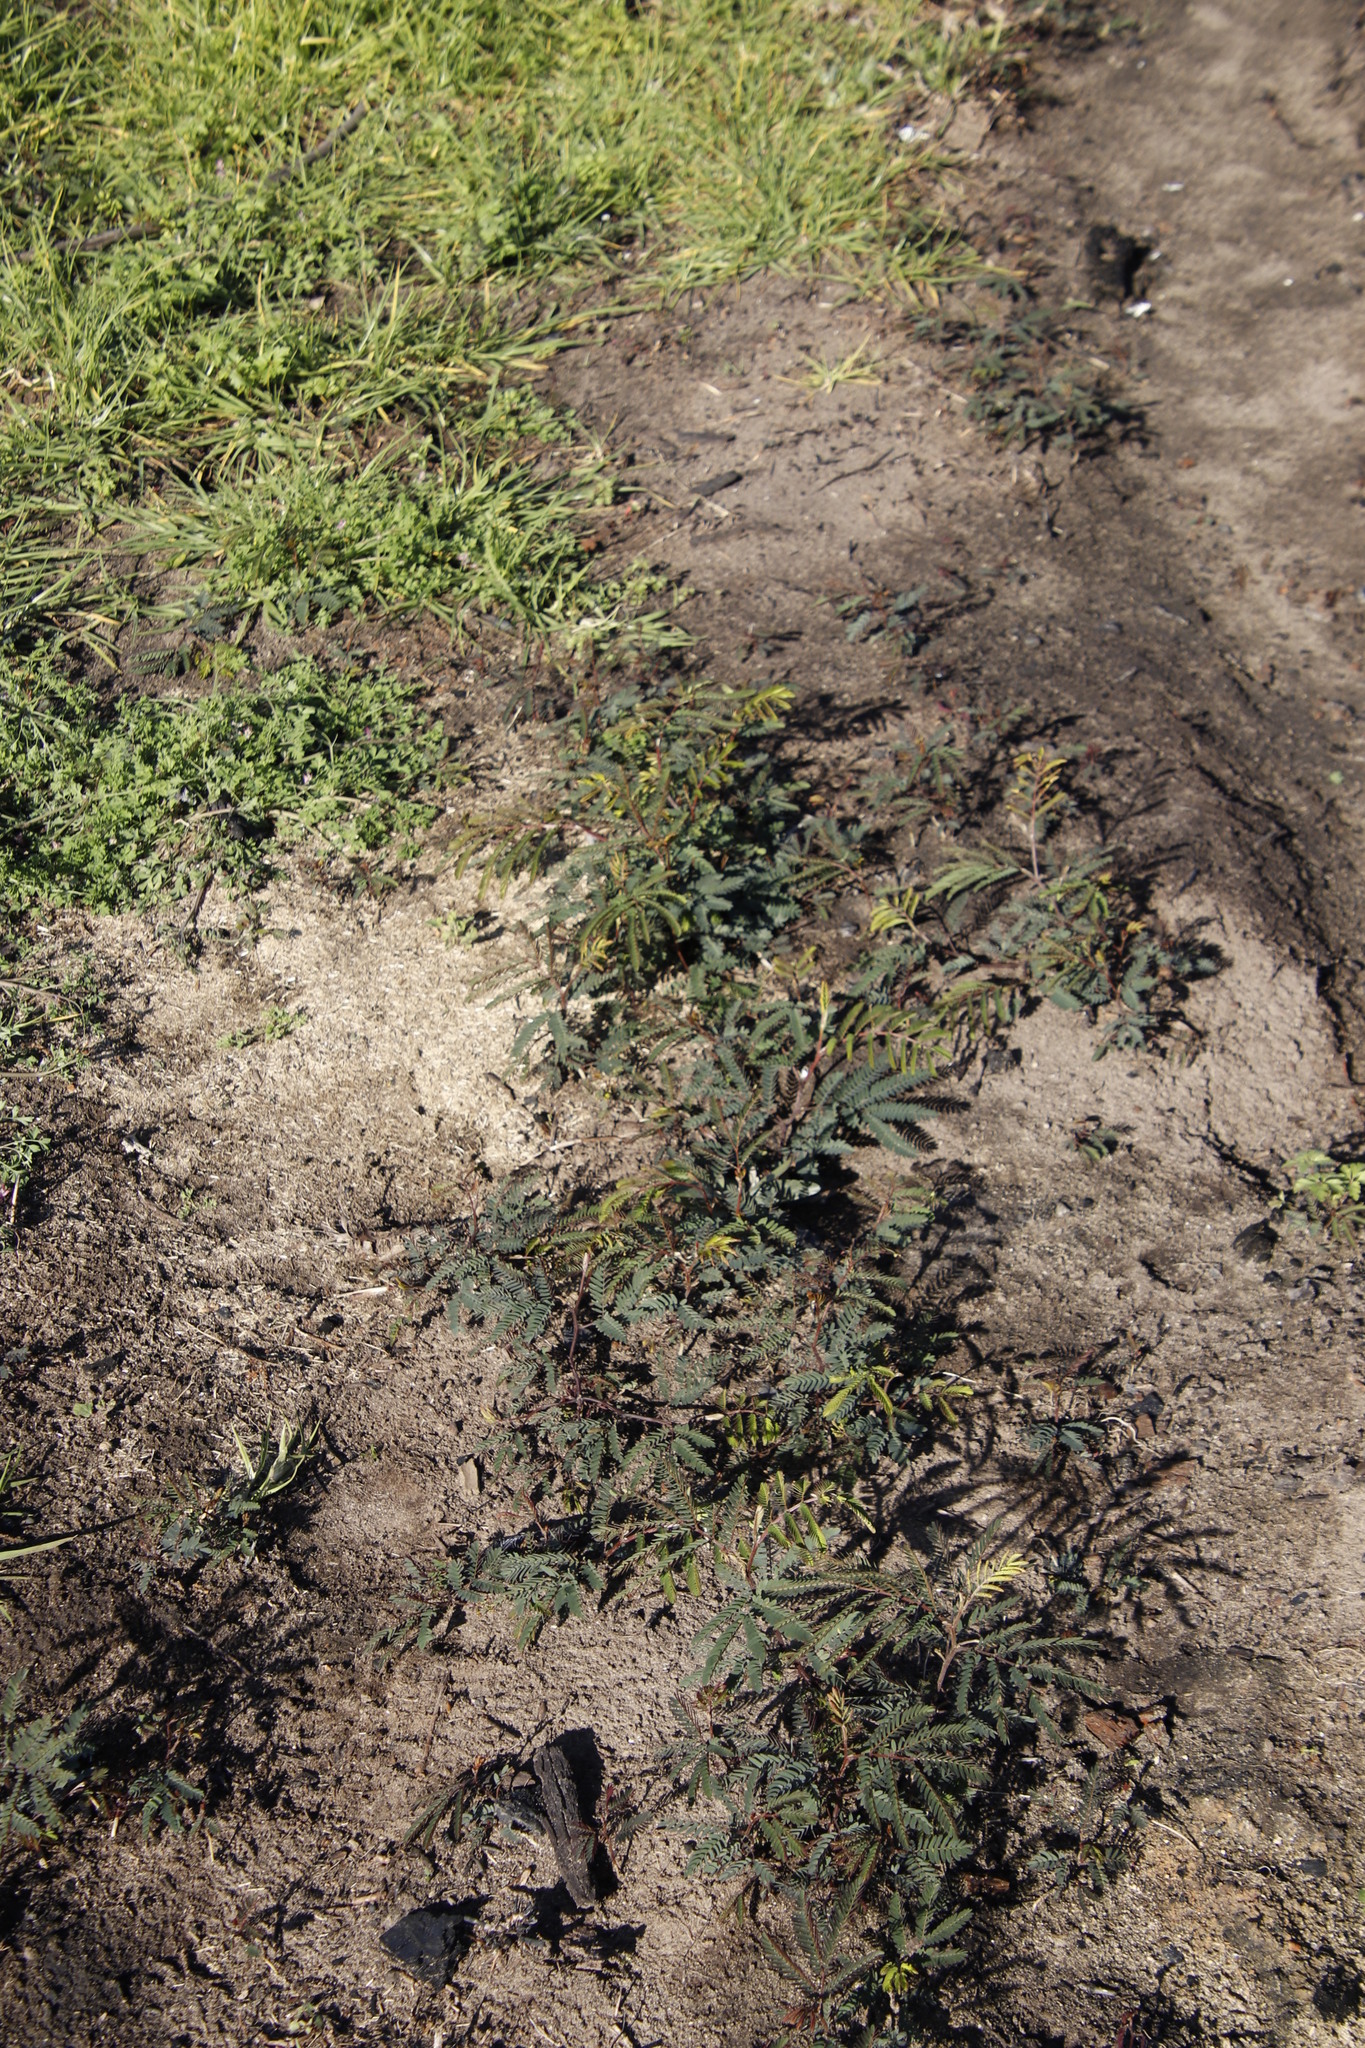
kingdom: Plantae
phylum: Tracheophyta
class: Magnoliopsida
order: Fabales
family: Fabaceae
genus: Paraserianthes
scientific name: Paraserianthes lophantha
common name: Plume albizia
